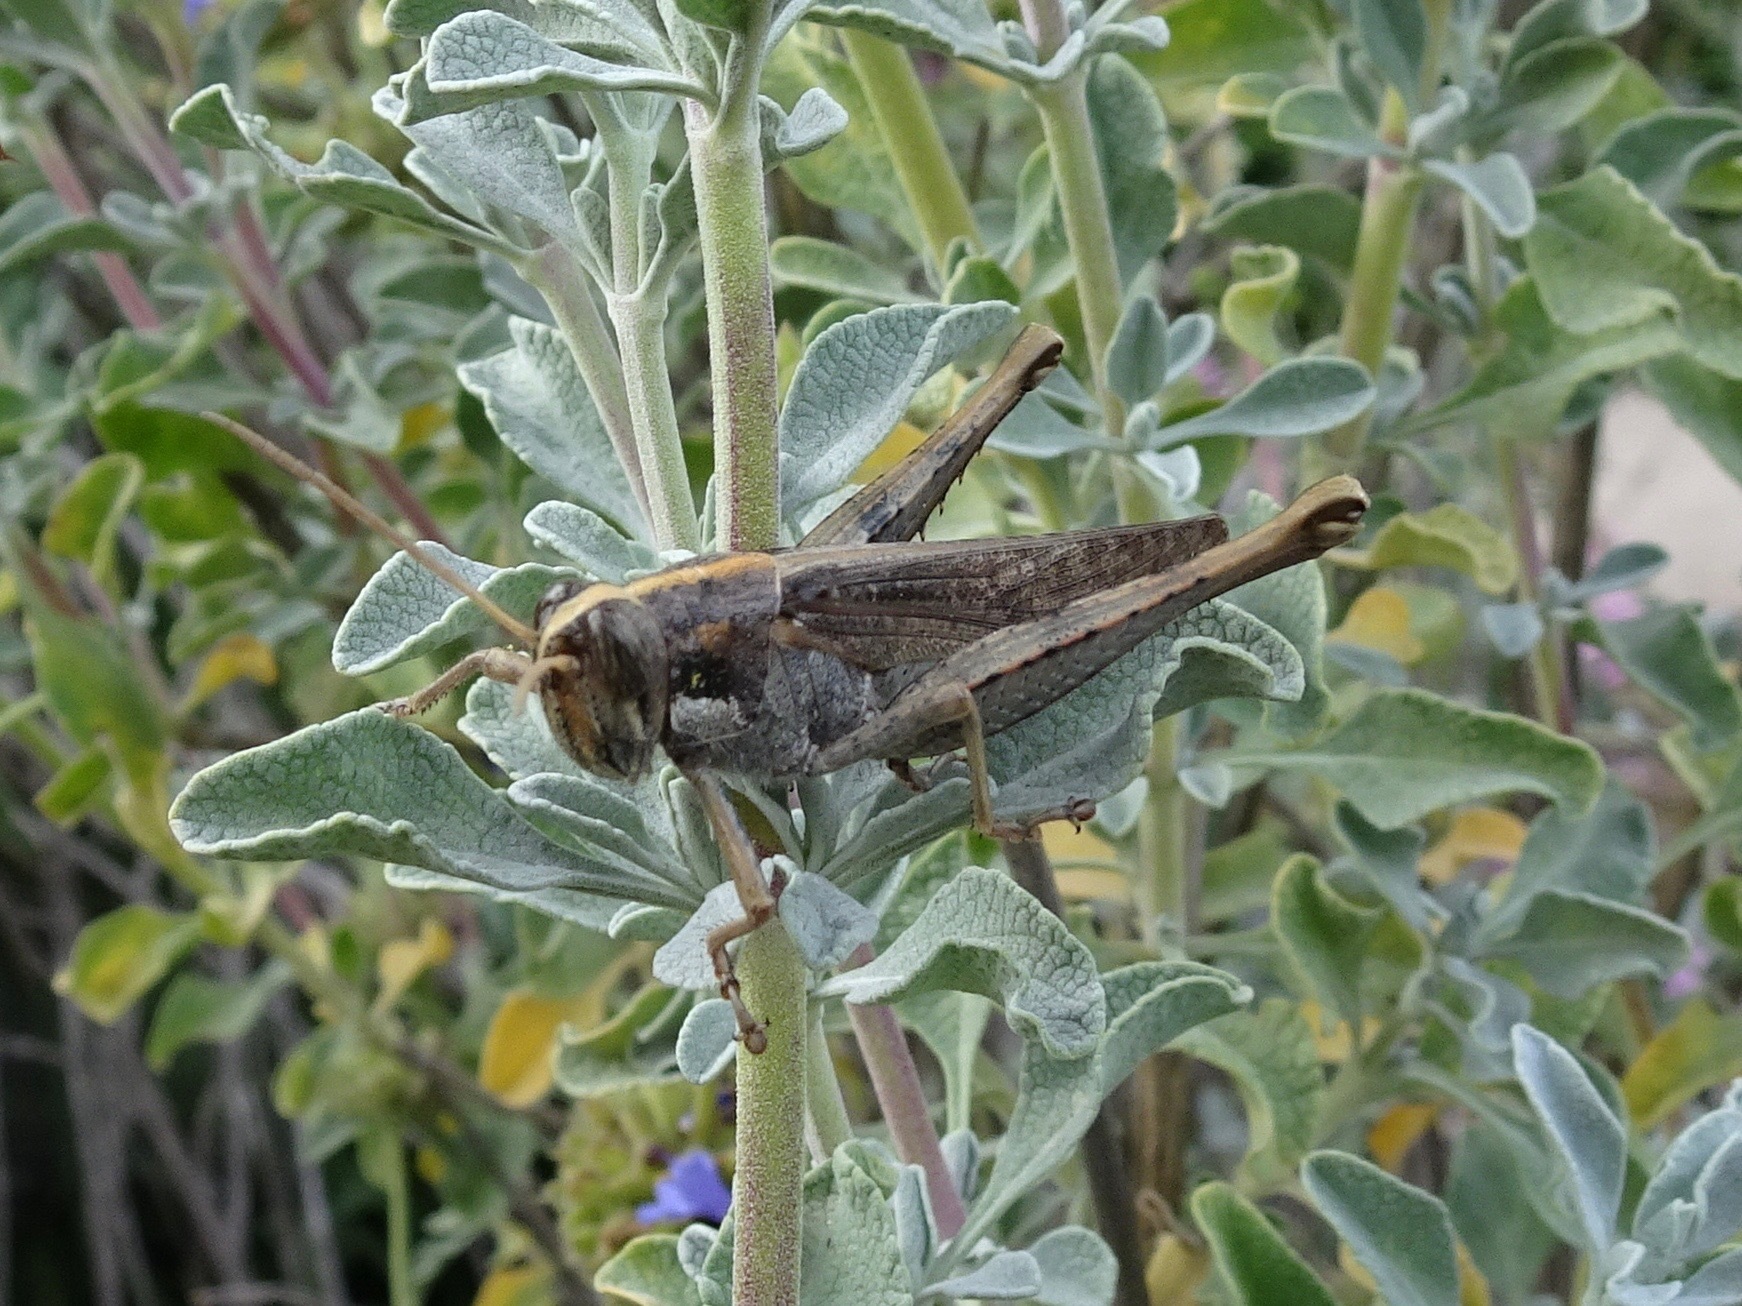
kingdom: Animalia
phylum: Arthropoda
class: Insecta
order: Orthoptera
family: Acrididae
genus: Schistocerca
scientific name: Schistocerca nitens
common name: Vagrant grasshopper
